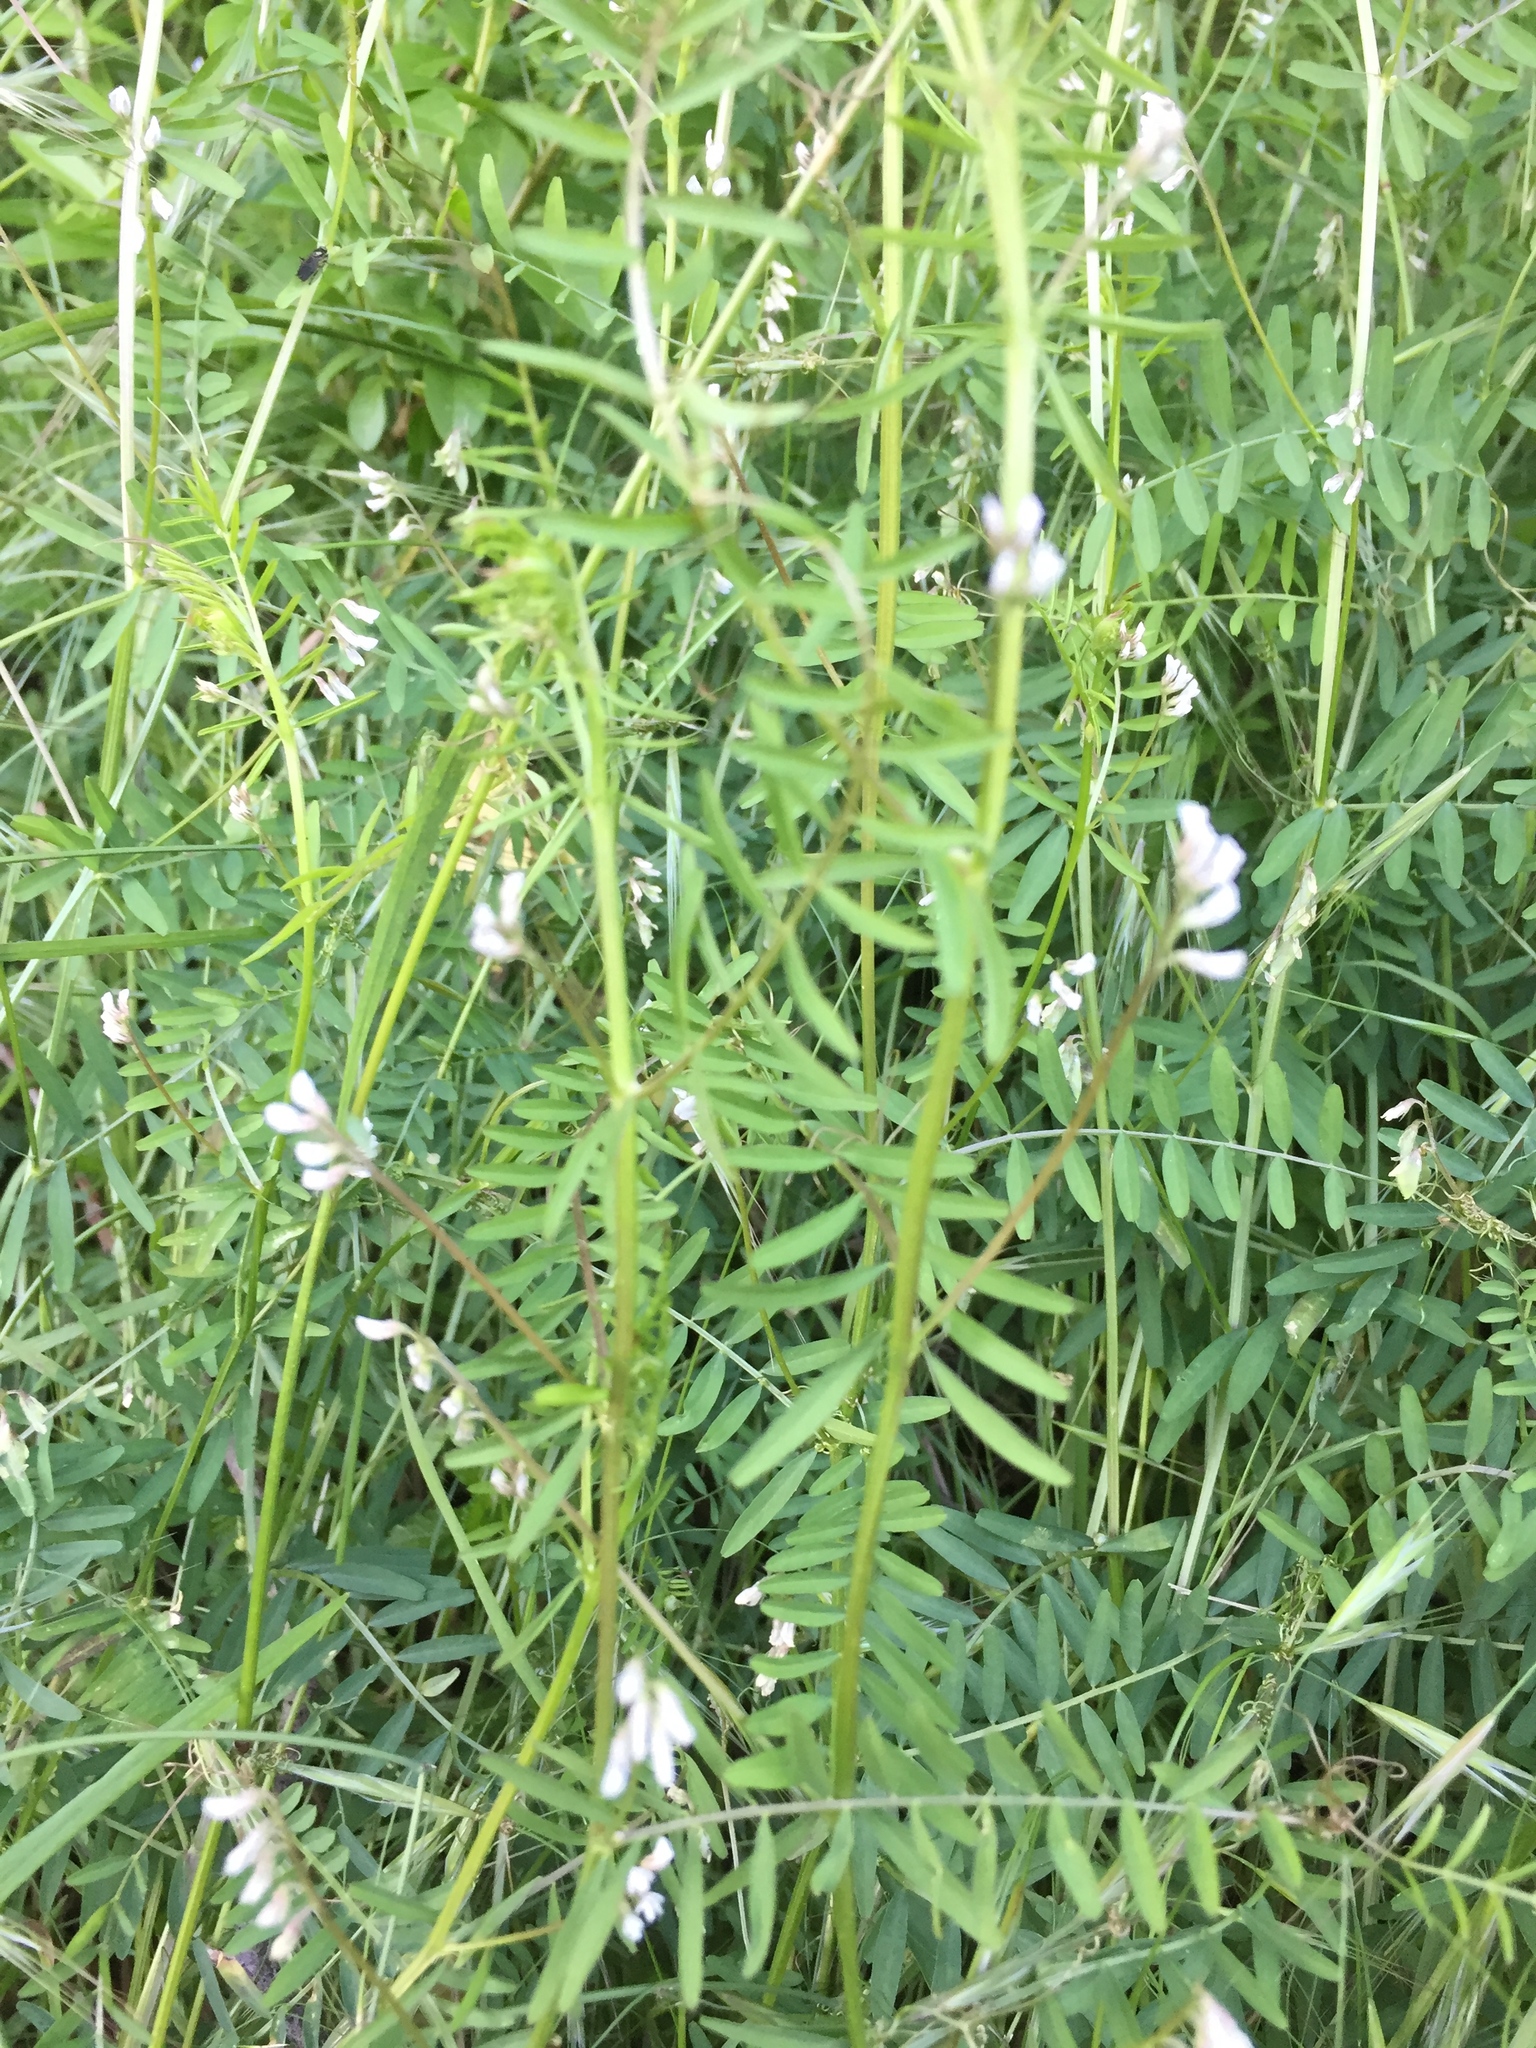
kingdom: Plantae
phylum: Tracheophyta
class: Magnoliopsida
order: Fabales
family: Fabaceae
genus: Vicia
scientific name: Vicia hirsuta
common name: Tiny vetch
